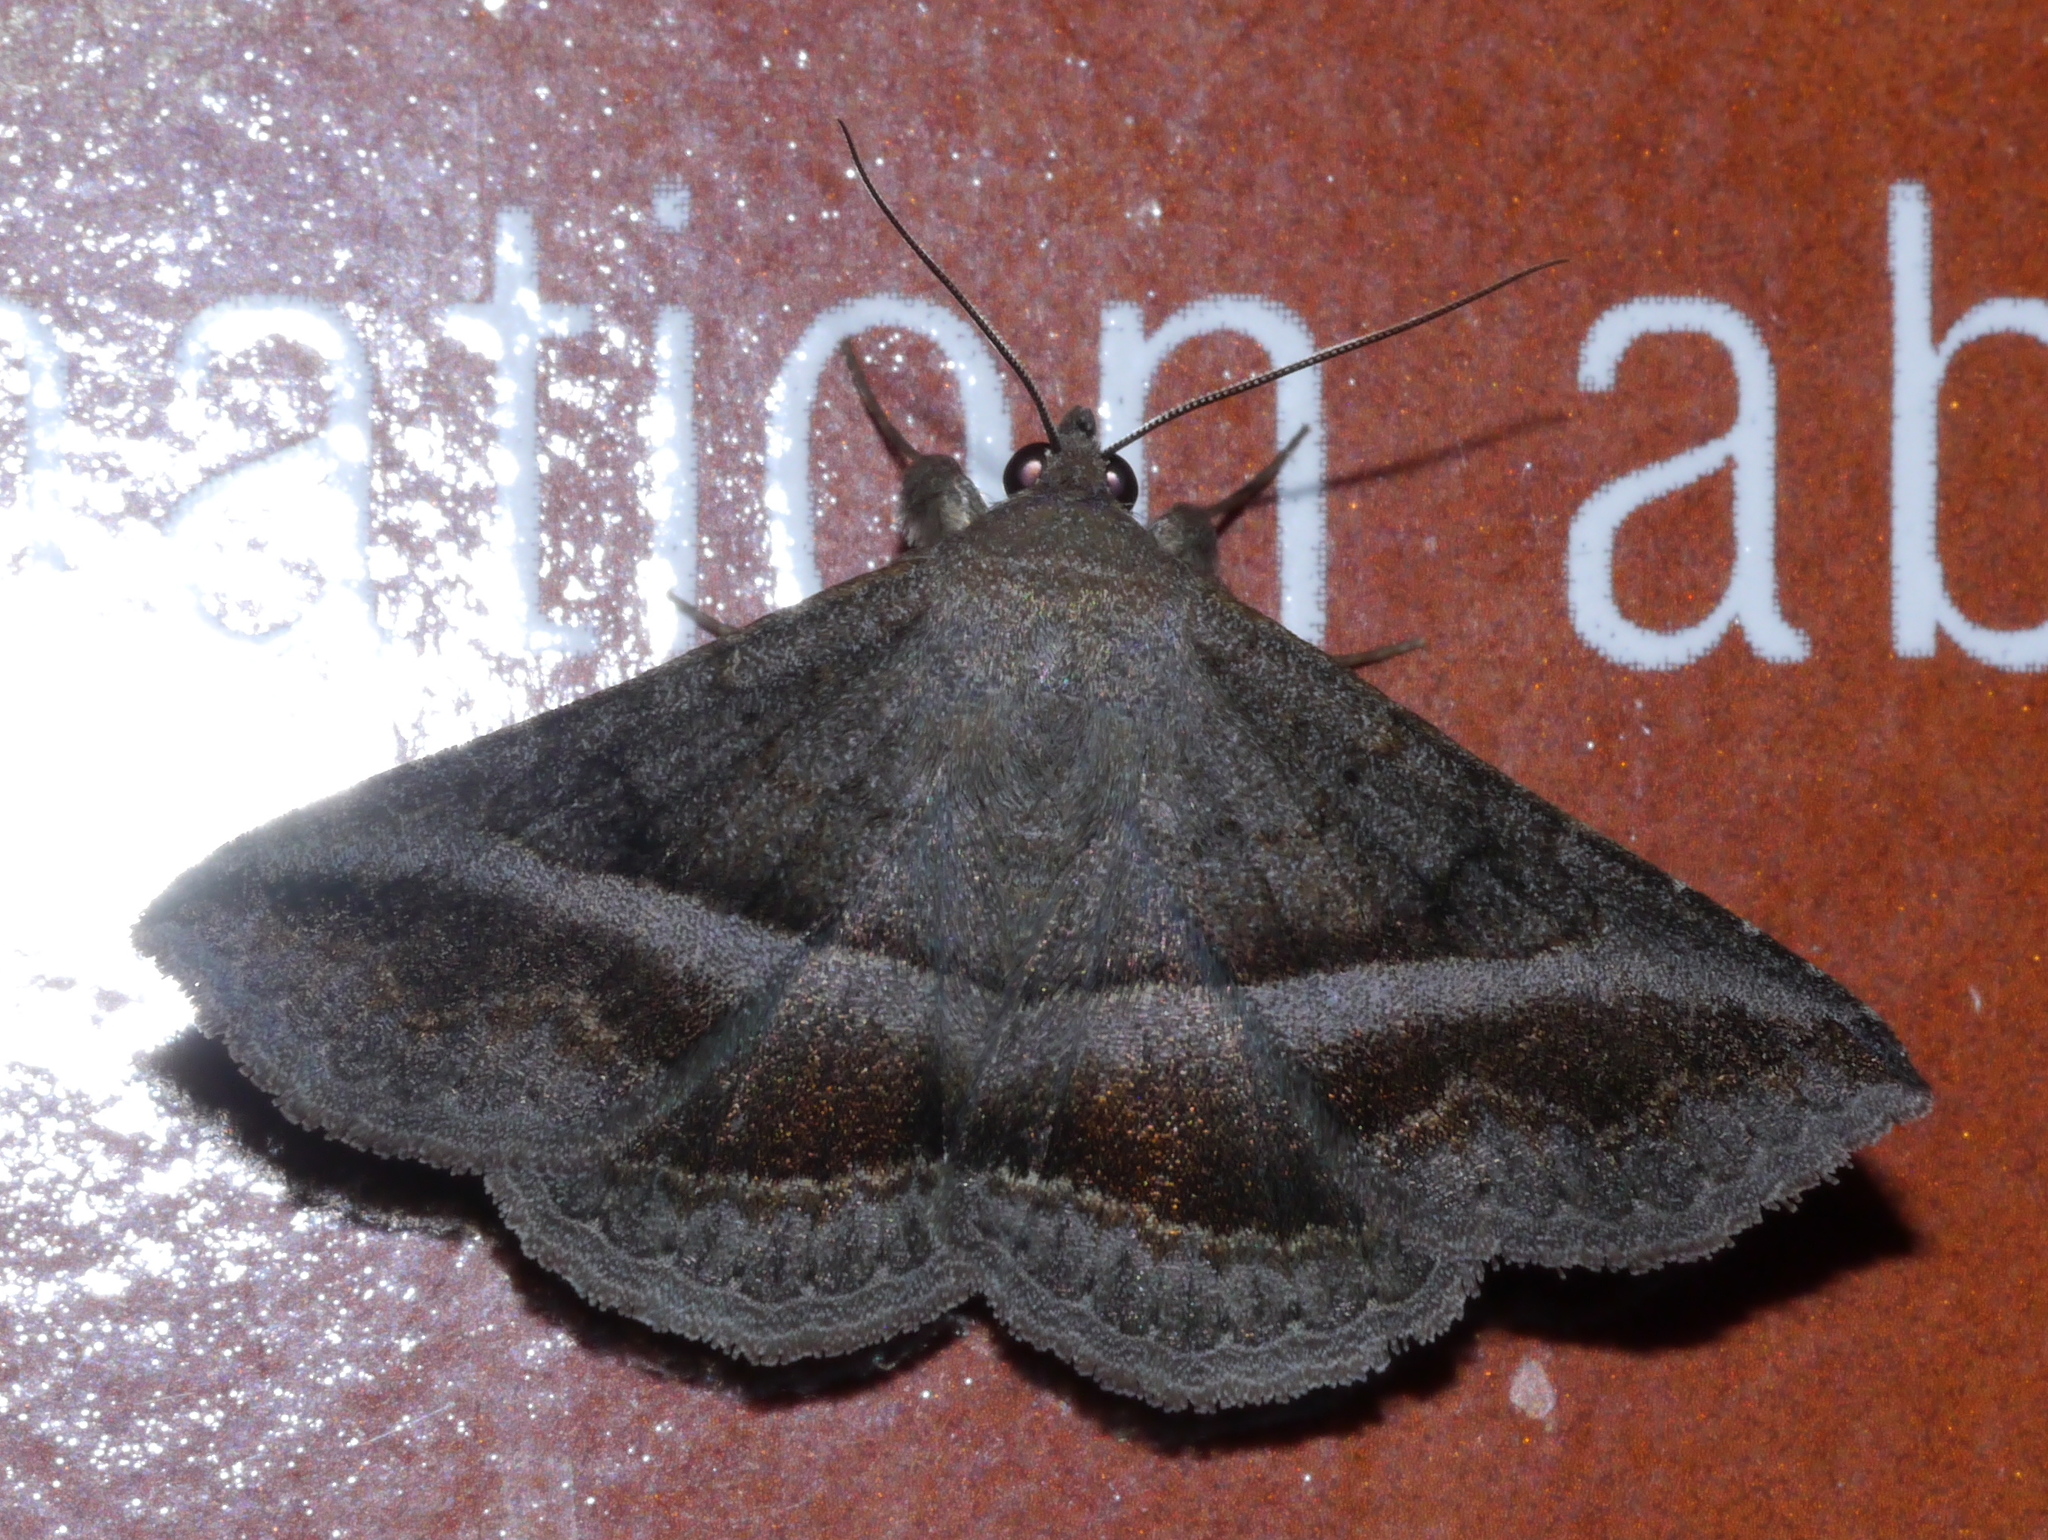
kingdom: Animalia
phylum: Arthropoda
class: Insecta
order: Lepidoptera
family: Erebidae
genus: Lesmone
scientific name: Lesmone griseipennis
